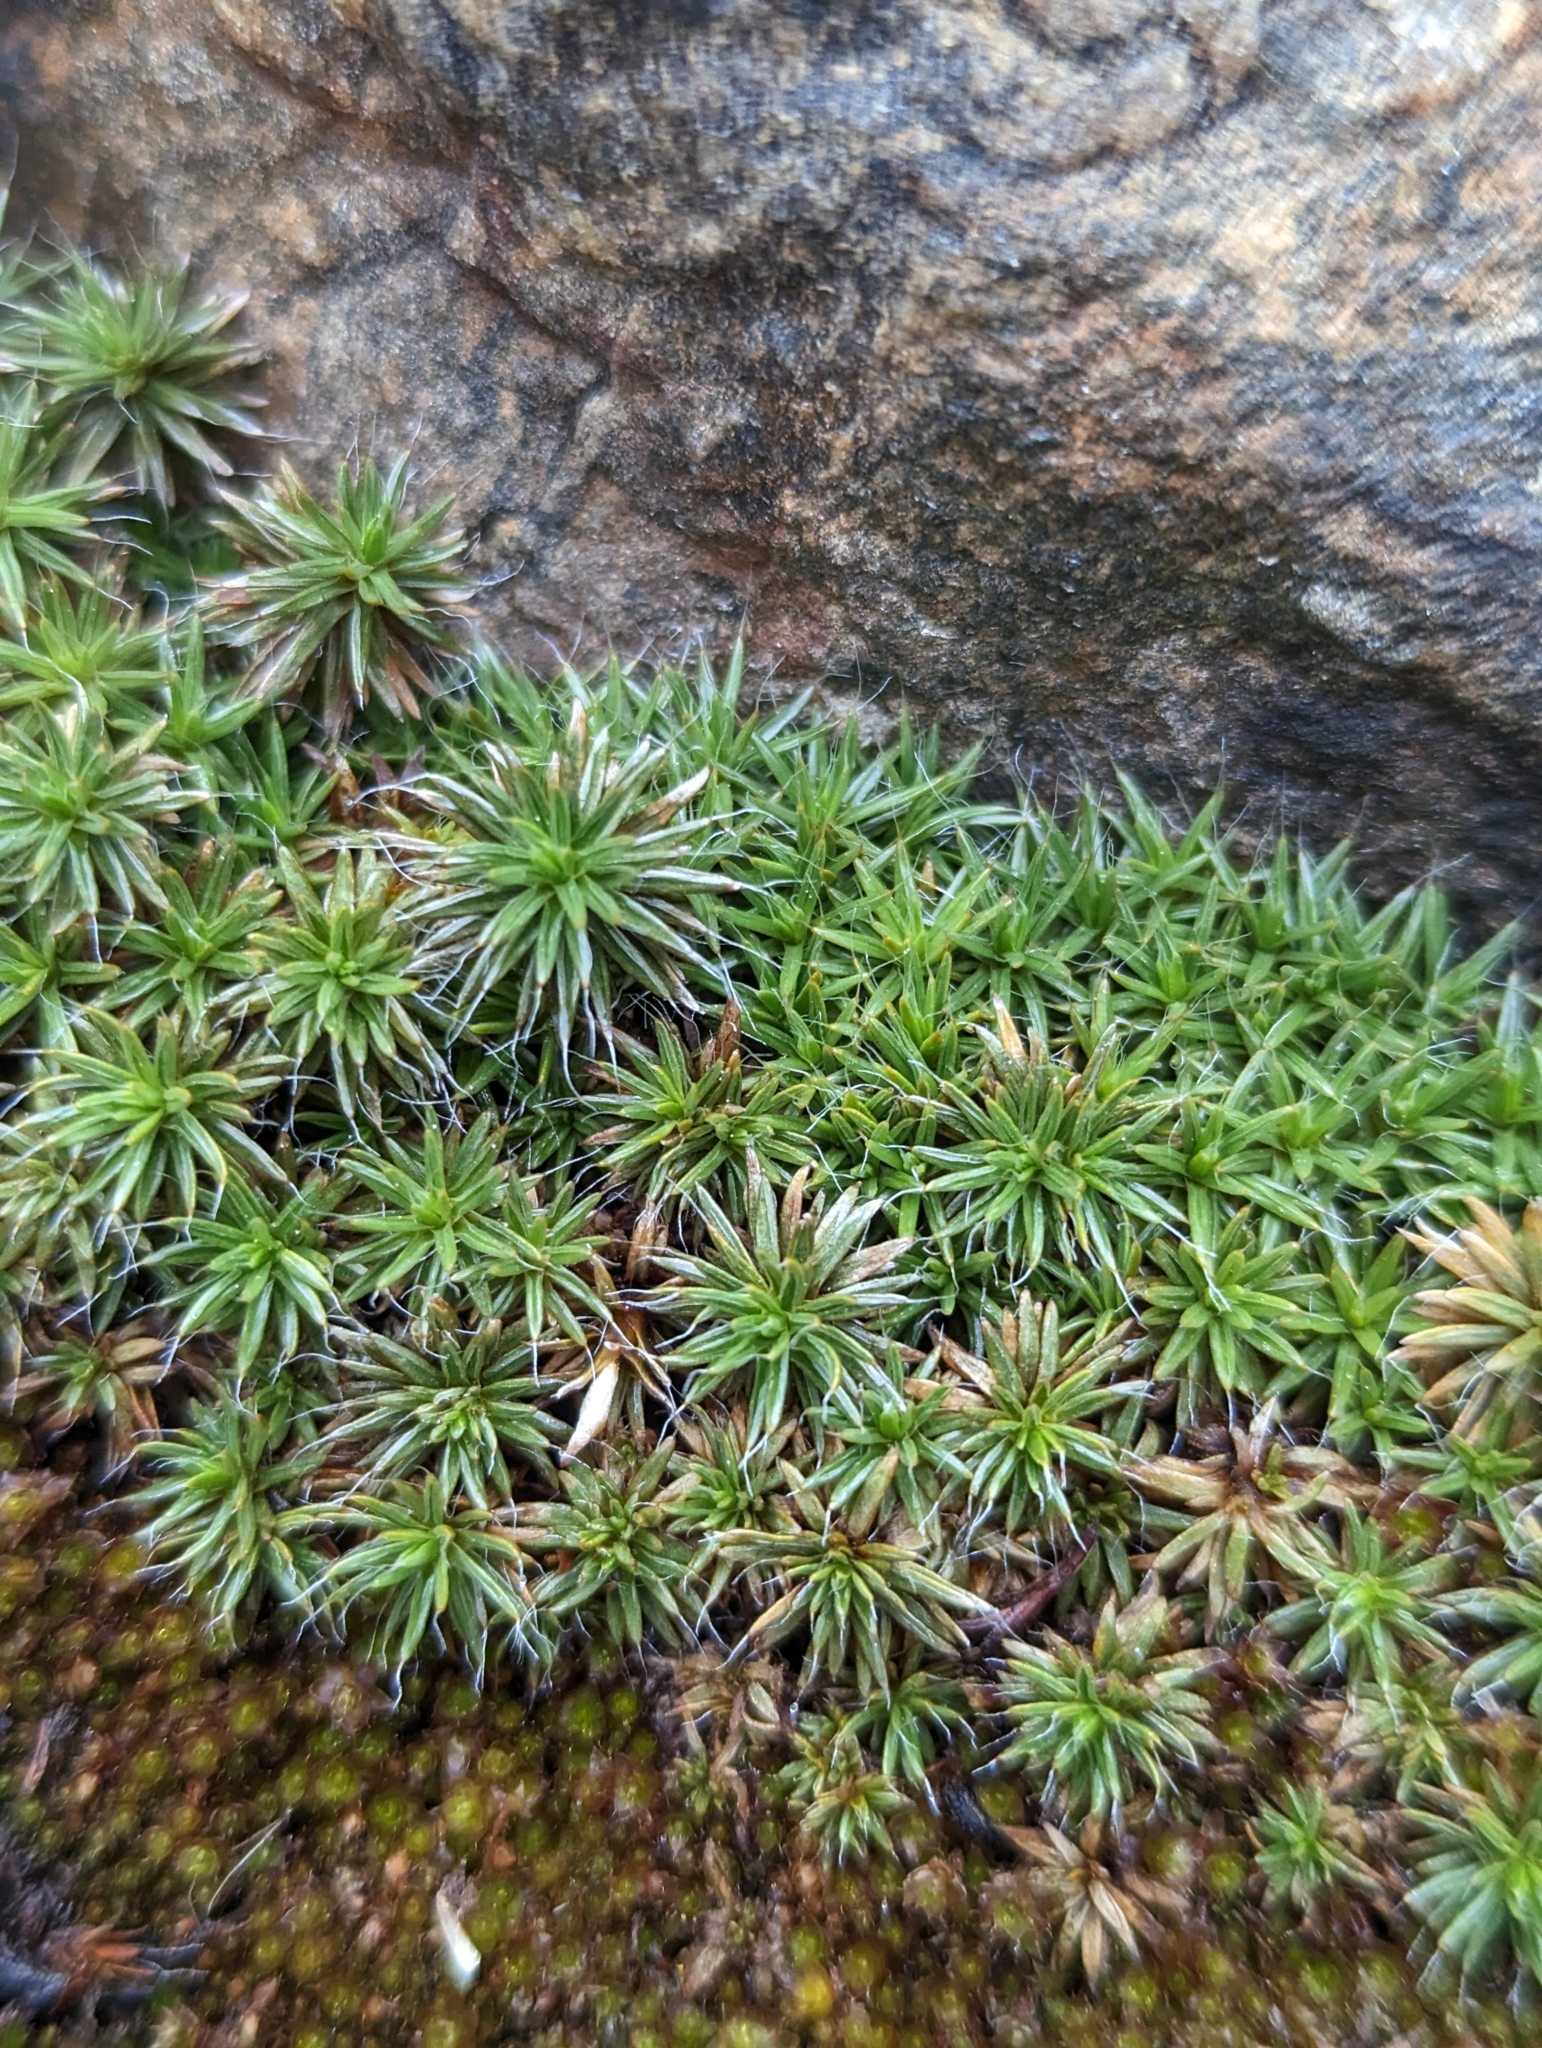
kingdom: Plantae
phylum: Bryophyta
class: Polytrichopsida
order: Polytrichales
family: Polytrichaceae
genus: Polytrichum
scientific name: Polytrichum piliferum
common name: Bristly haircap
